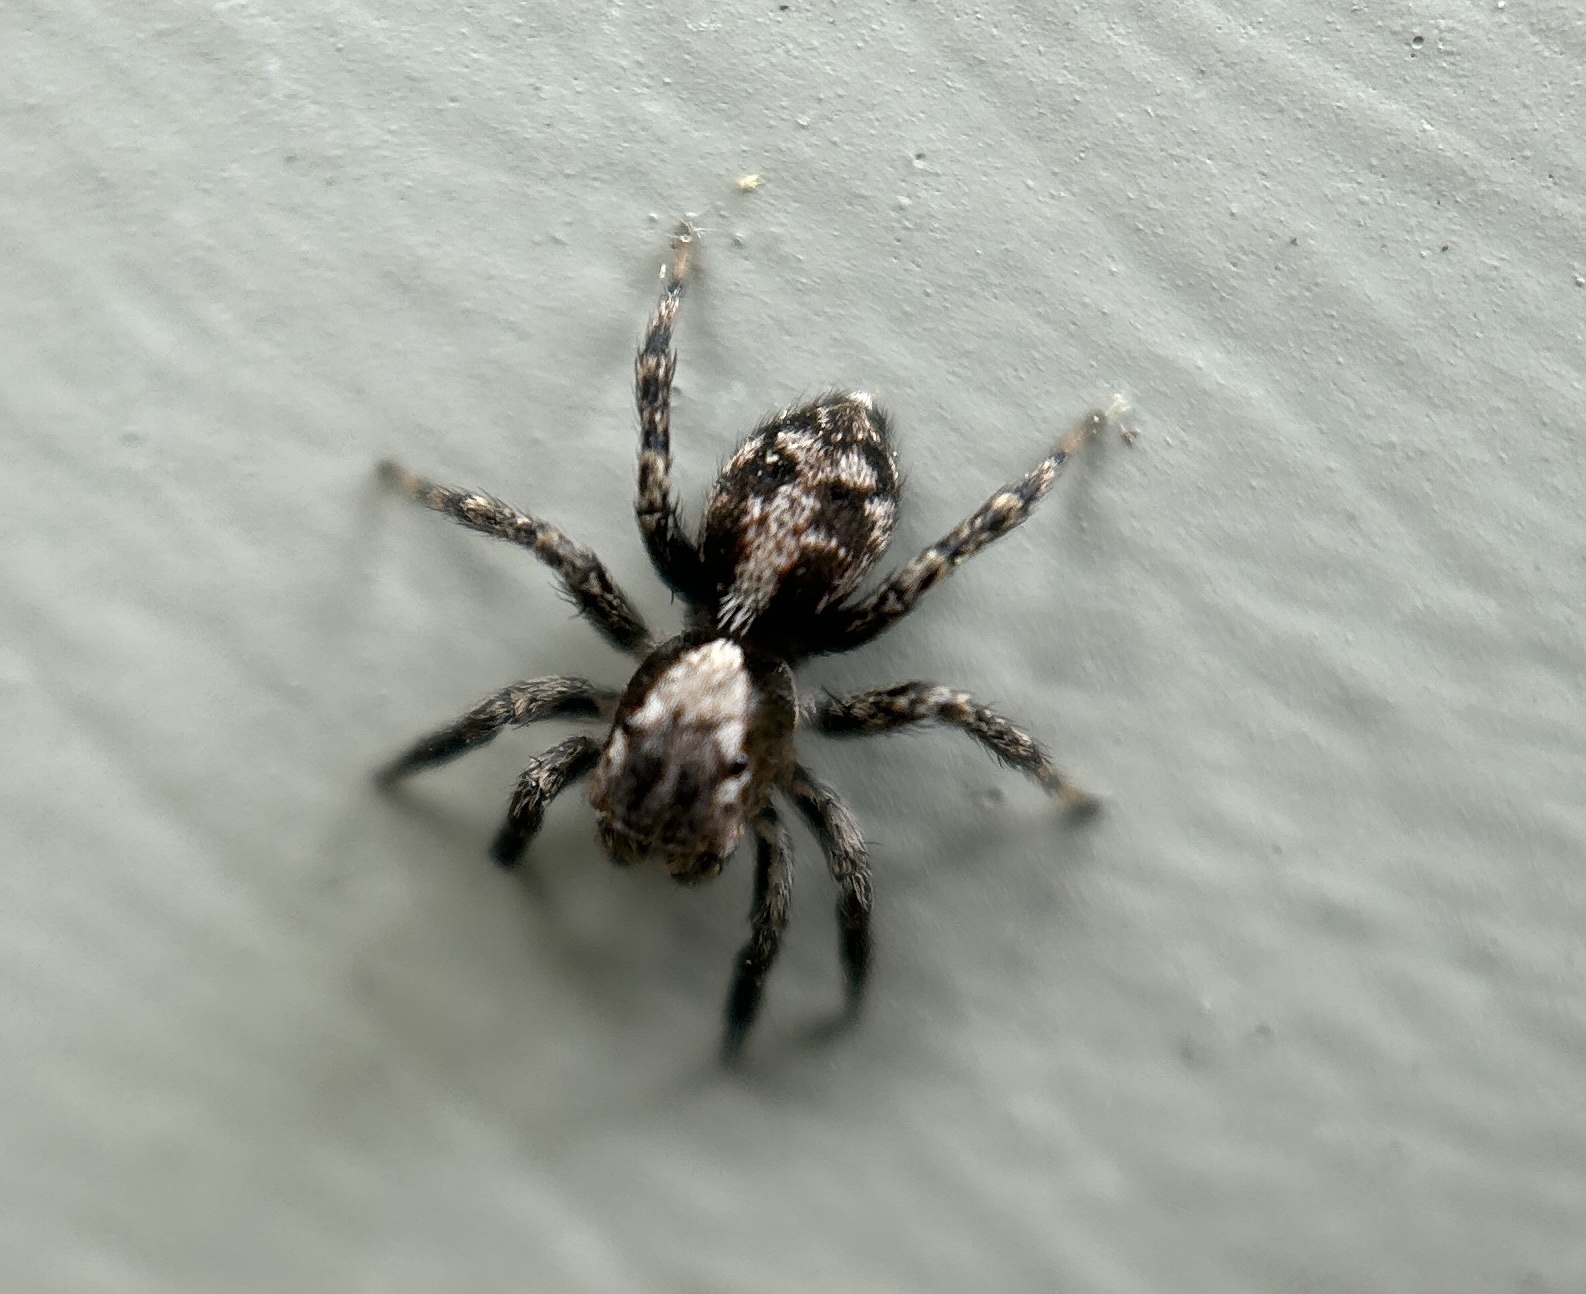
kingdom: Animalia
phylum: Arthropoda
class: Arachnida
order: Araneae
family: Salticidae
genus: Naphrys
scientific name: Naphrys pulex
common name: Flea jumping spider
